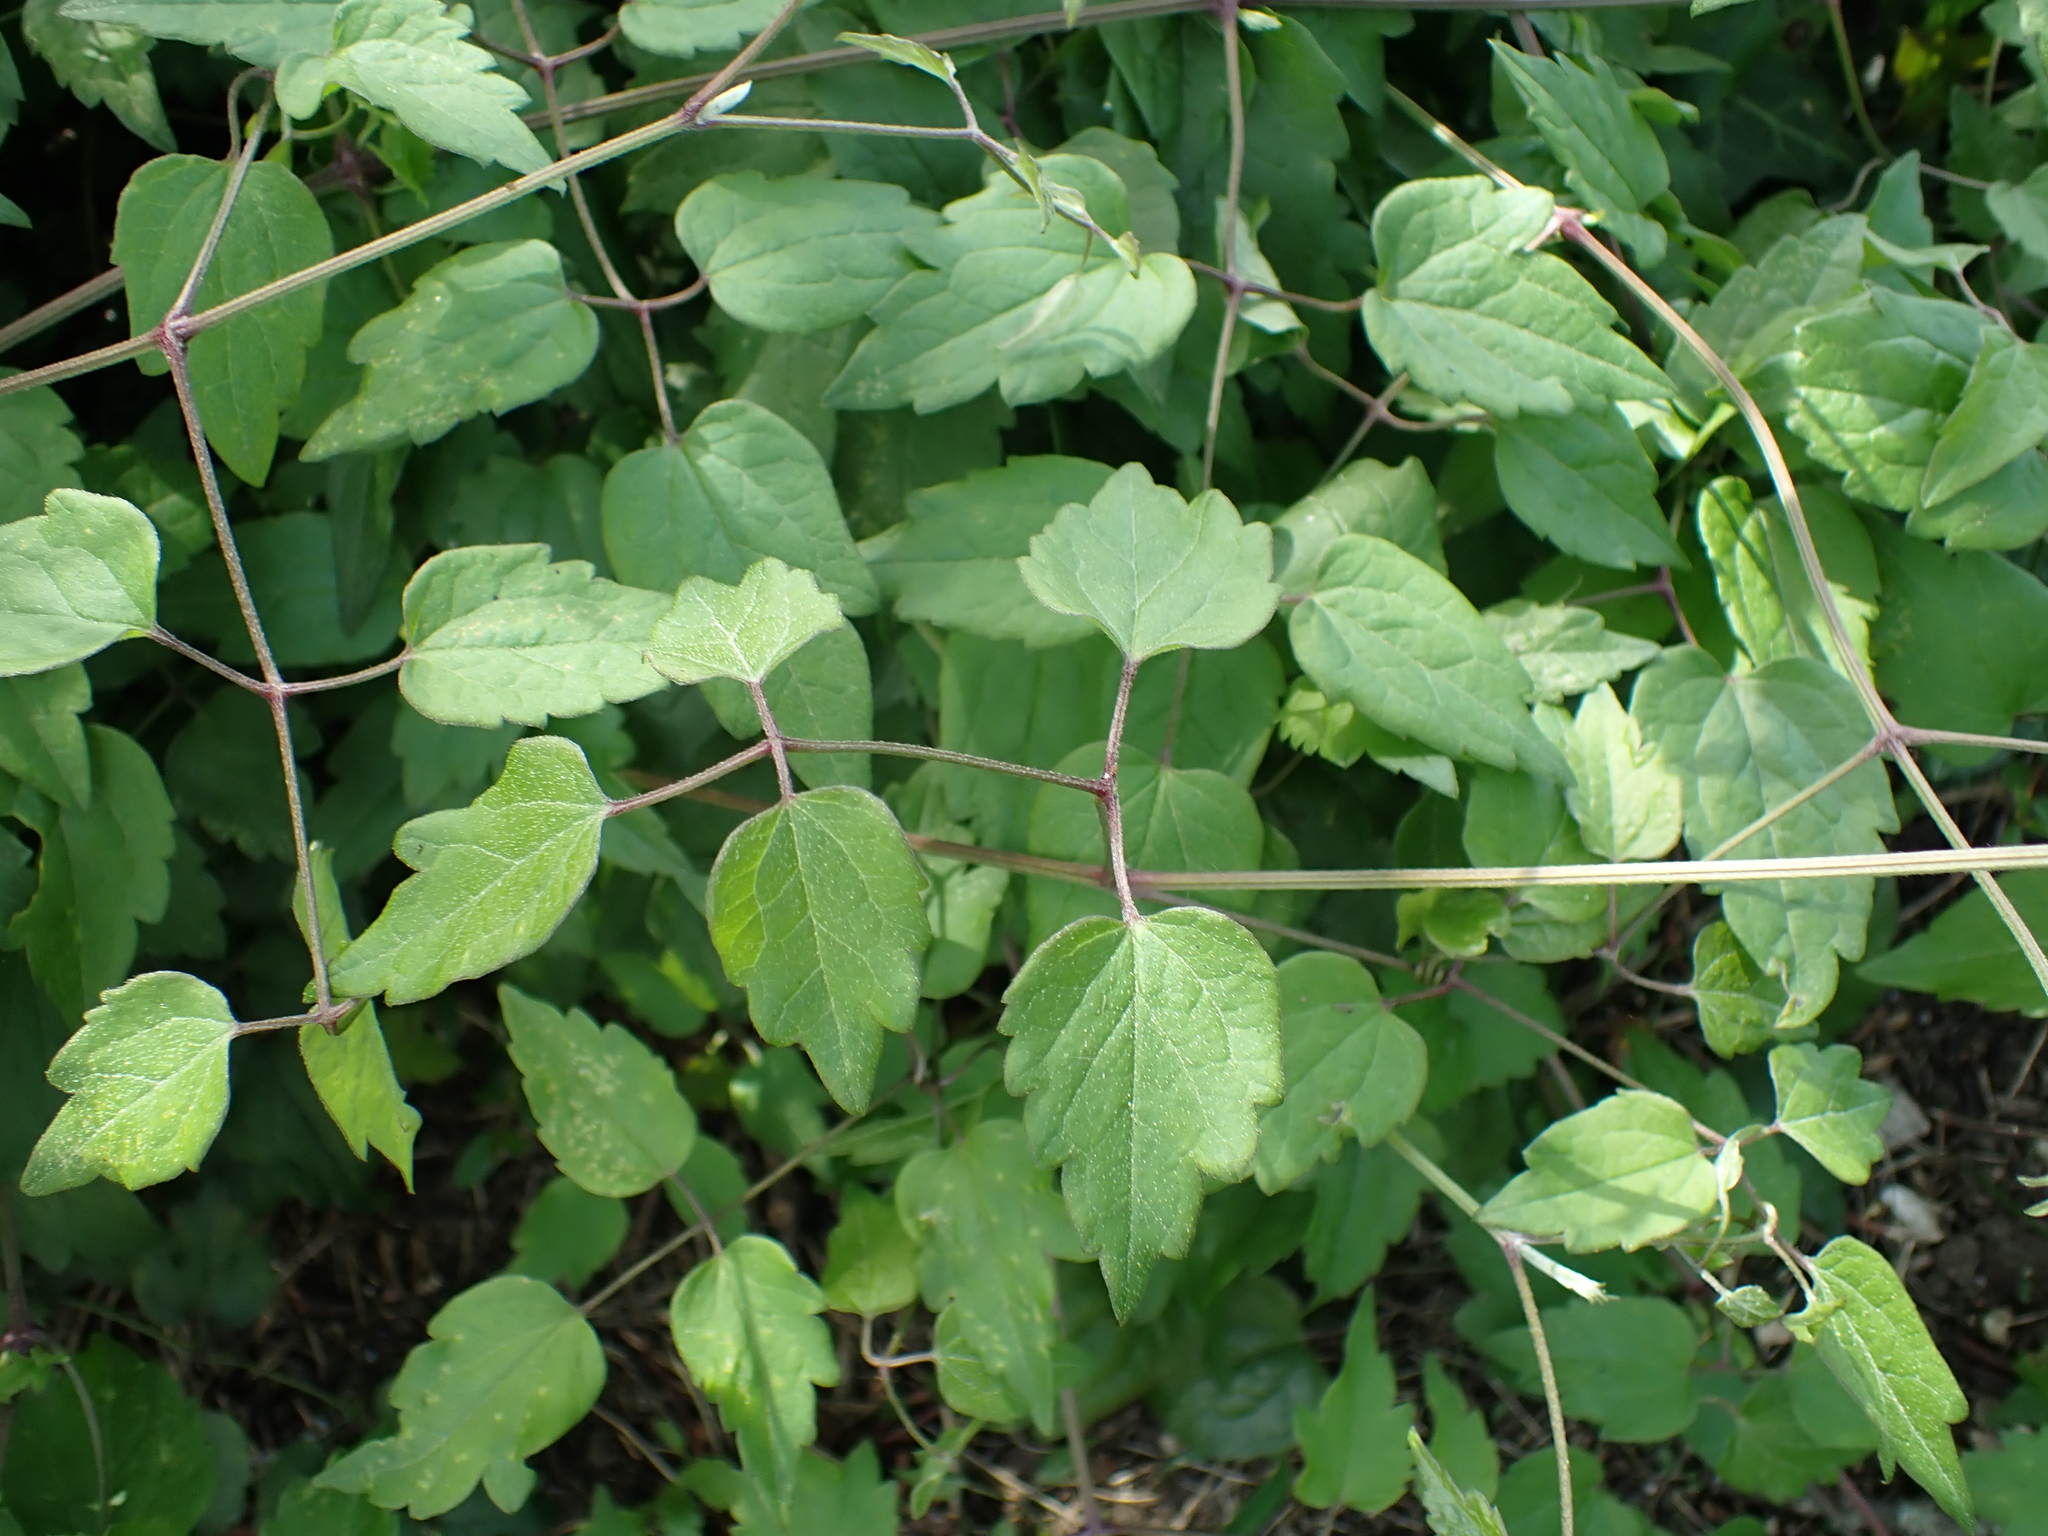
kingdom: Plantae
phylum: Tracheophyta
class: Magnoliopsida
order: Ranunculales
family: Ranunculaceae
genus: Clematis
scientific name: Clematis vitalba
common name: Evergreen clematis
